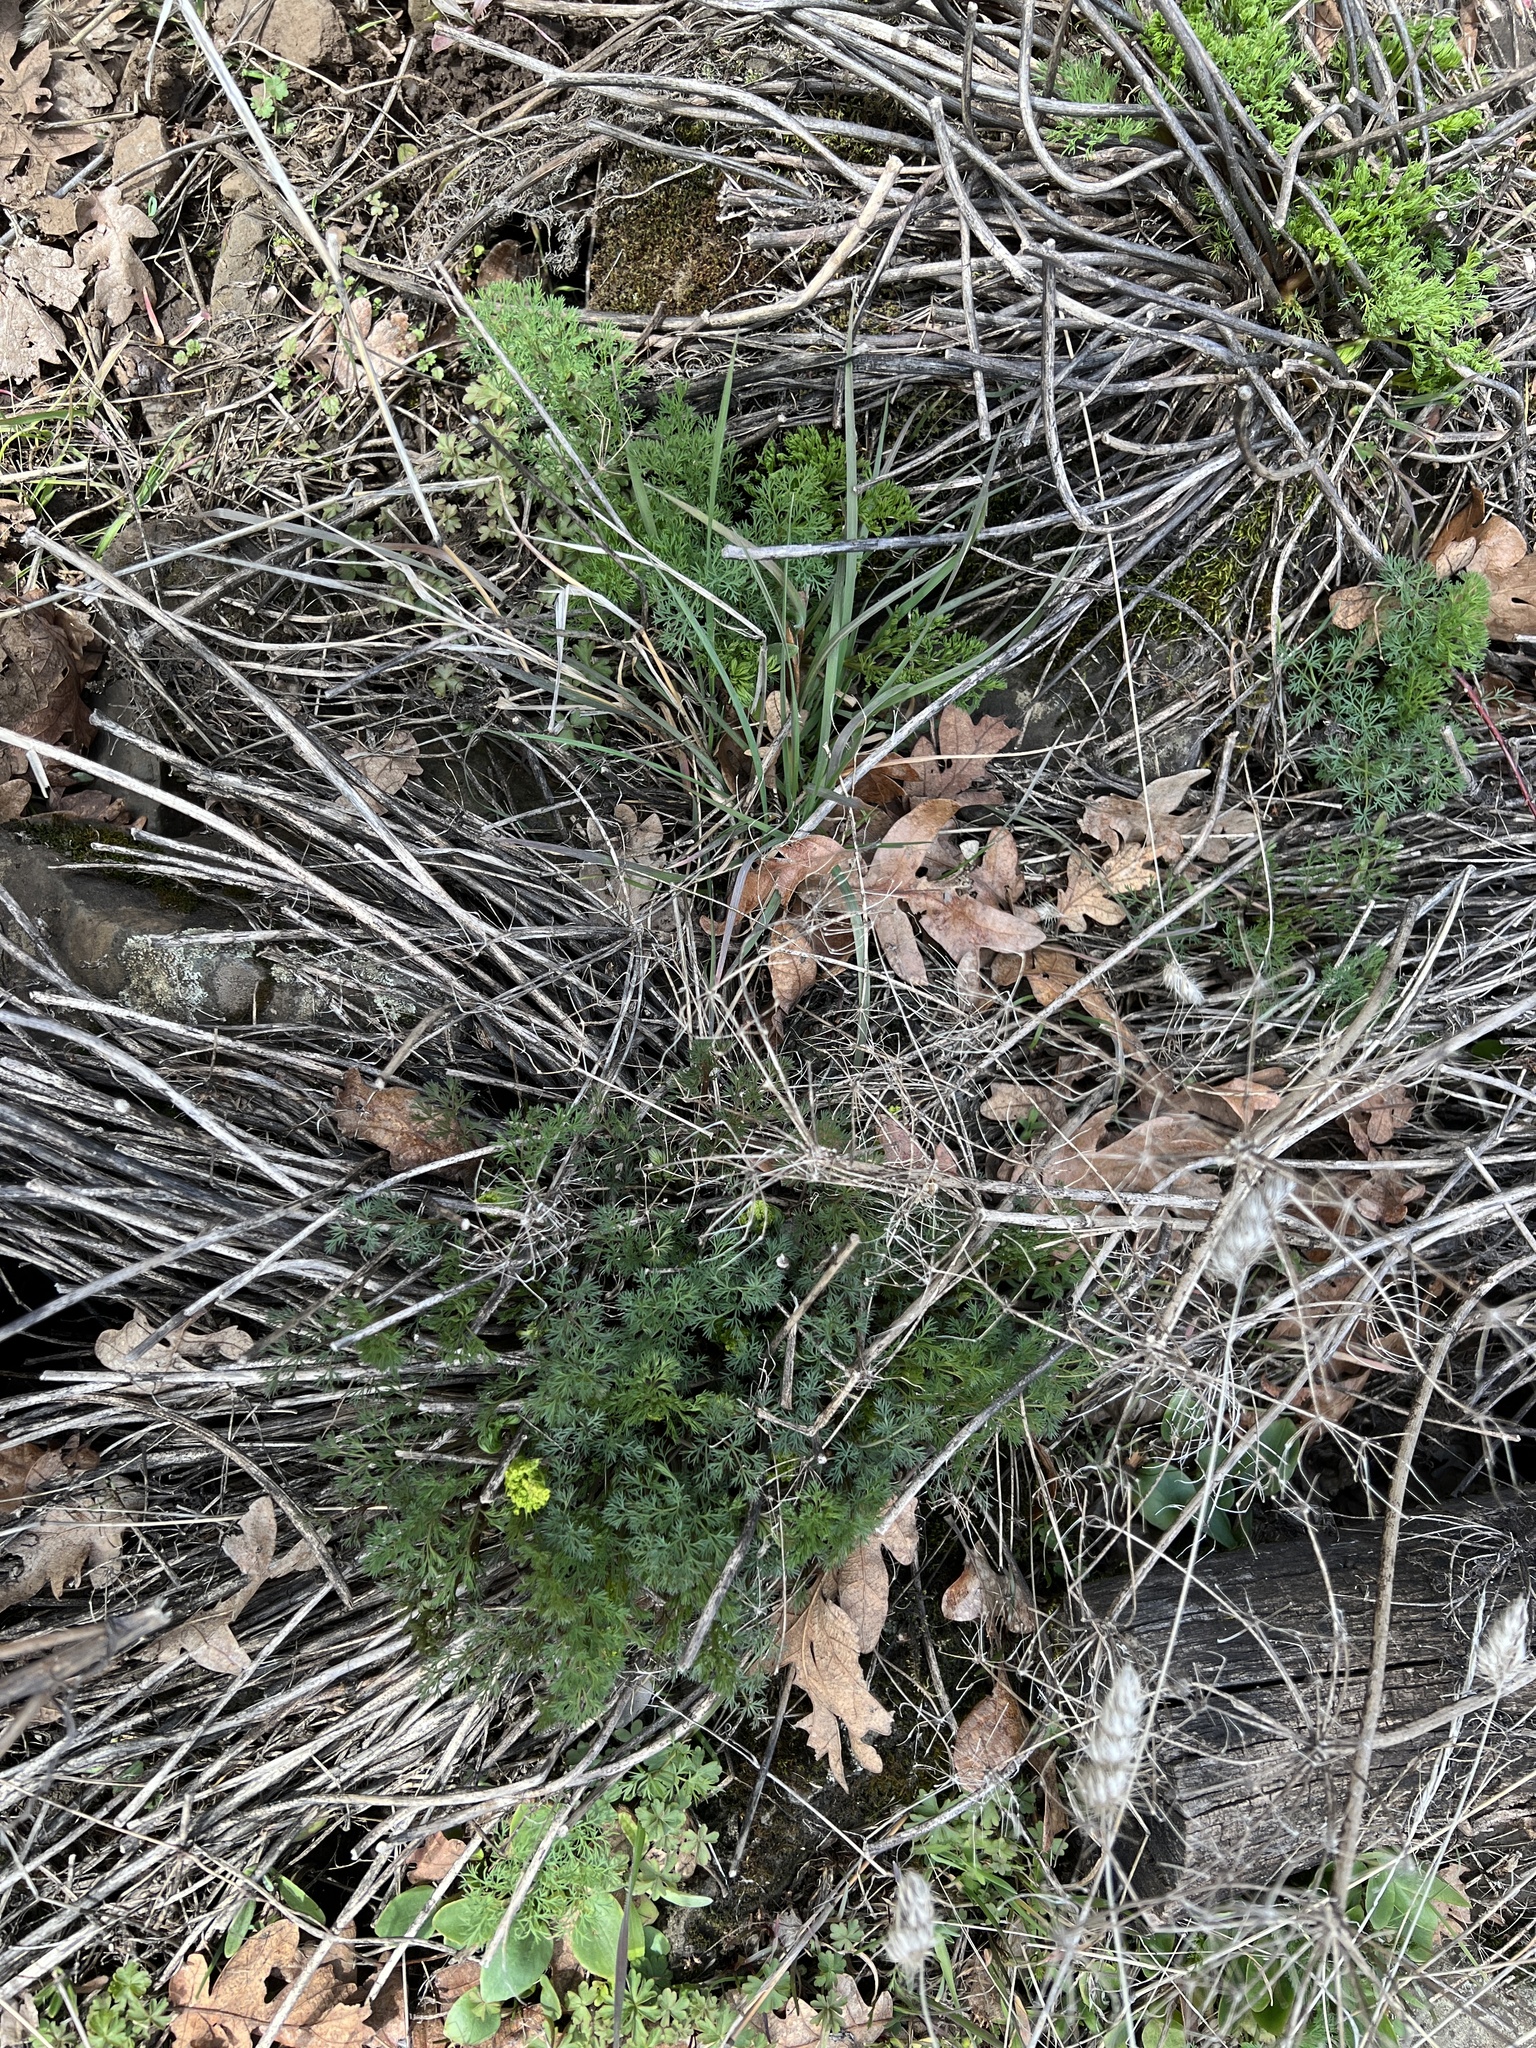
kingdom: Plantae
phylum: Tracheophyta
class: Magnoliopsida
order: Apiales
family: Apiaceae
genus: Lomatium
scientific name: Lomatium klickitatense
